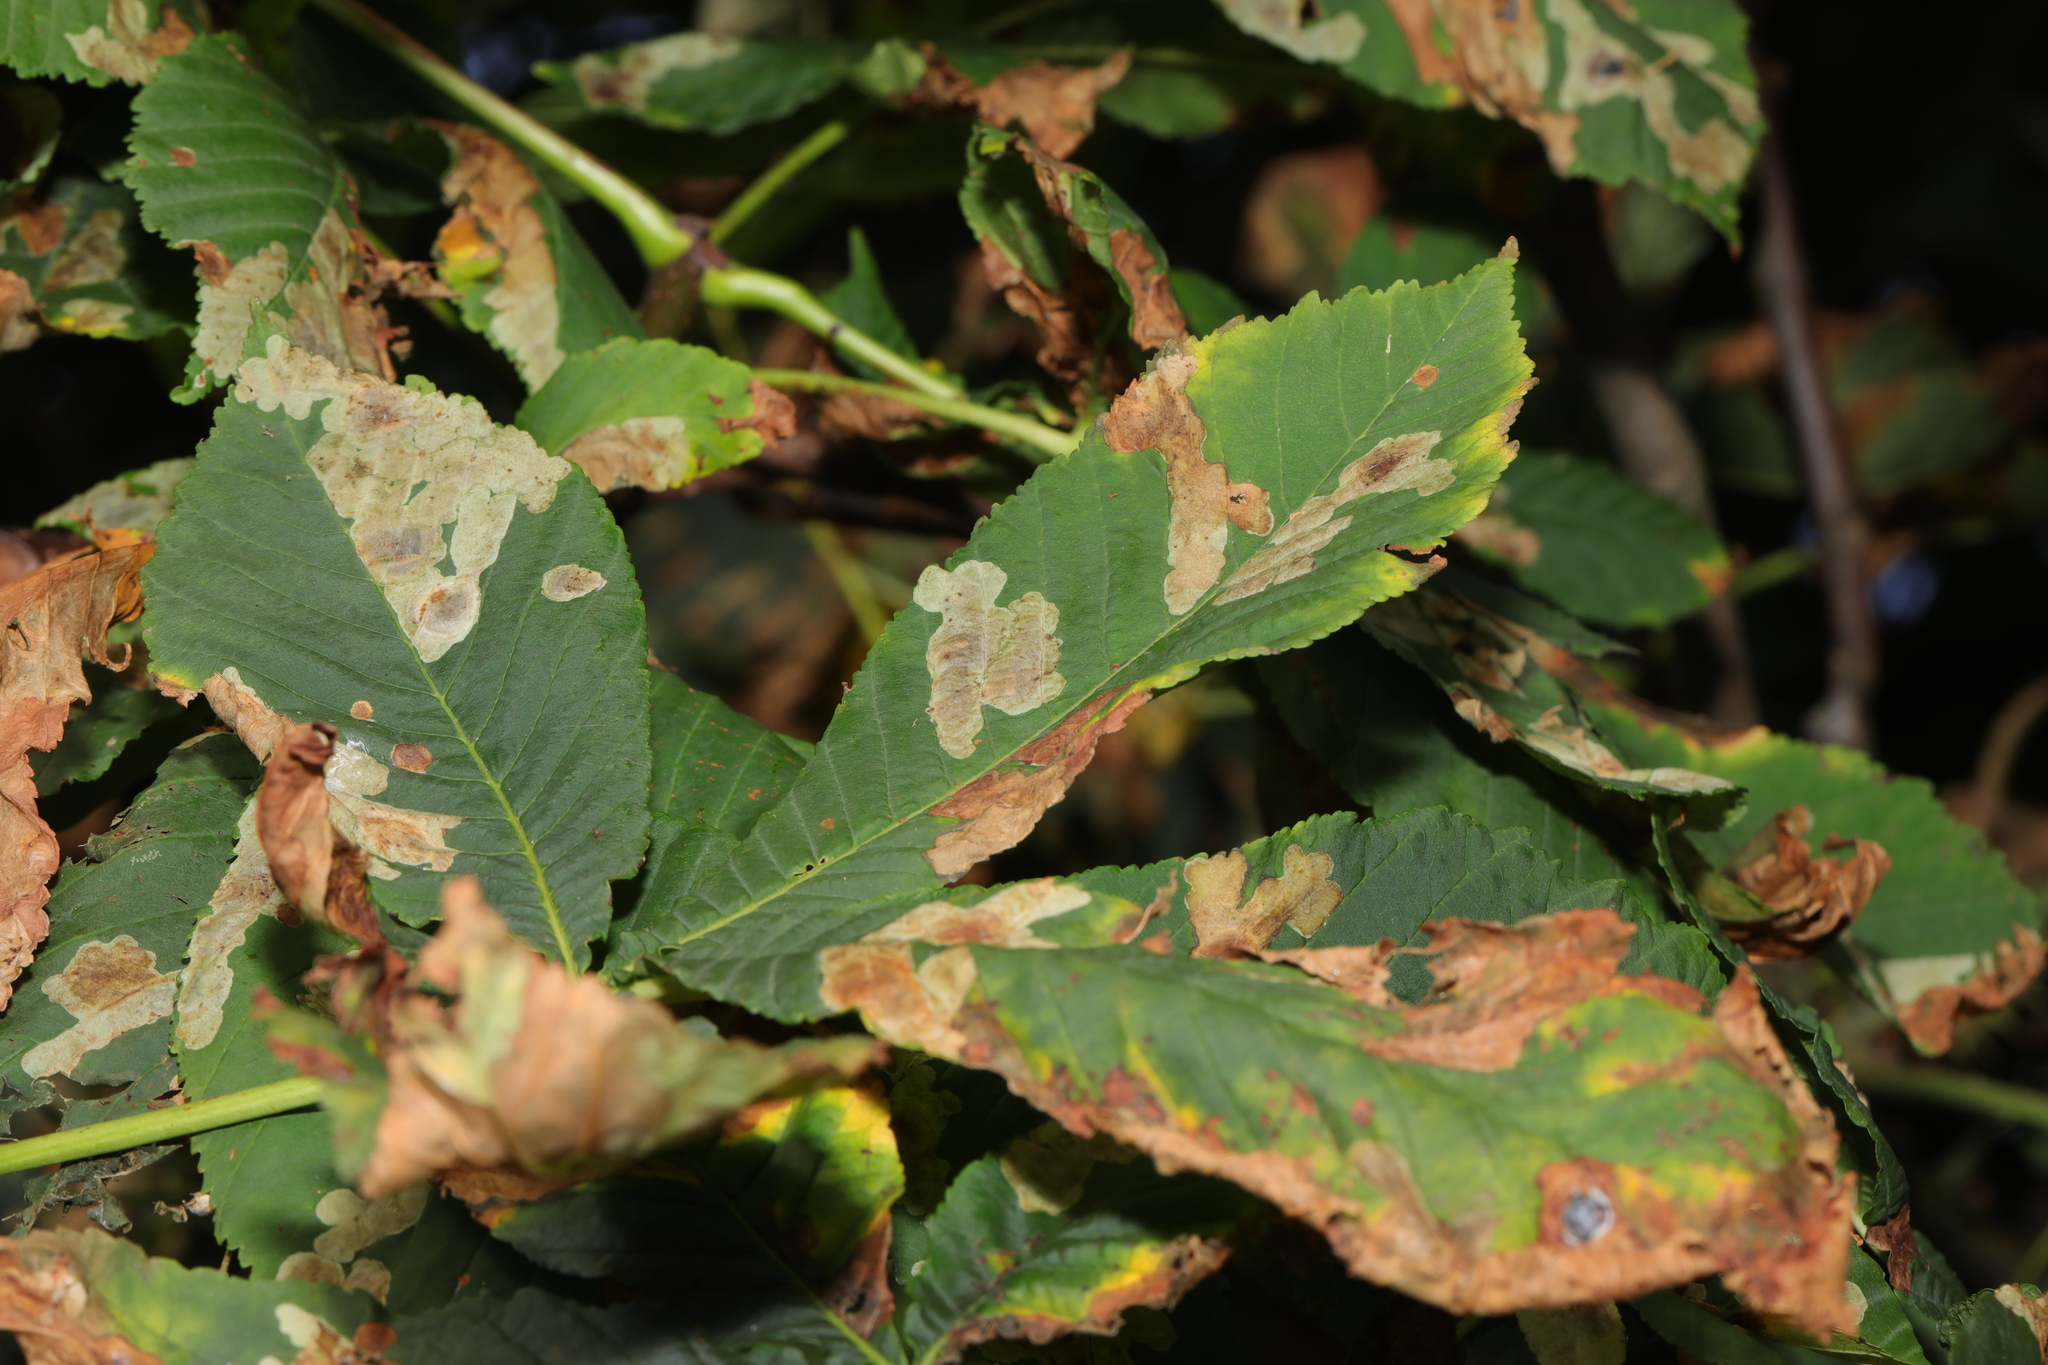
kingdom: Animalia
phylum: Arthropoda
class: Insecta
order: Lepidoptera
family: Gracillariidae
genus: Cameraria
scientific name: Cameraria ohridella
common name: Horse-chestnut leaf-miner
